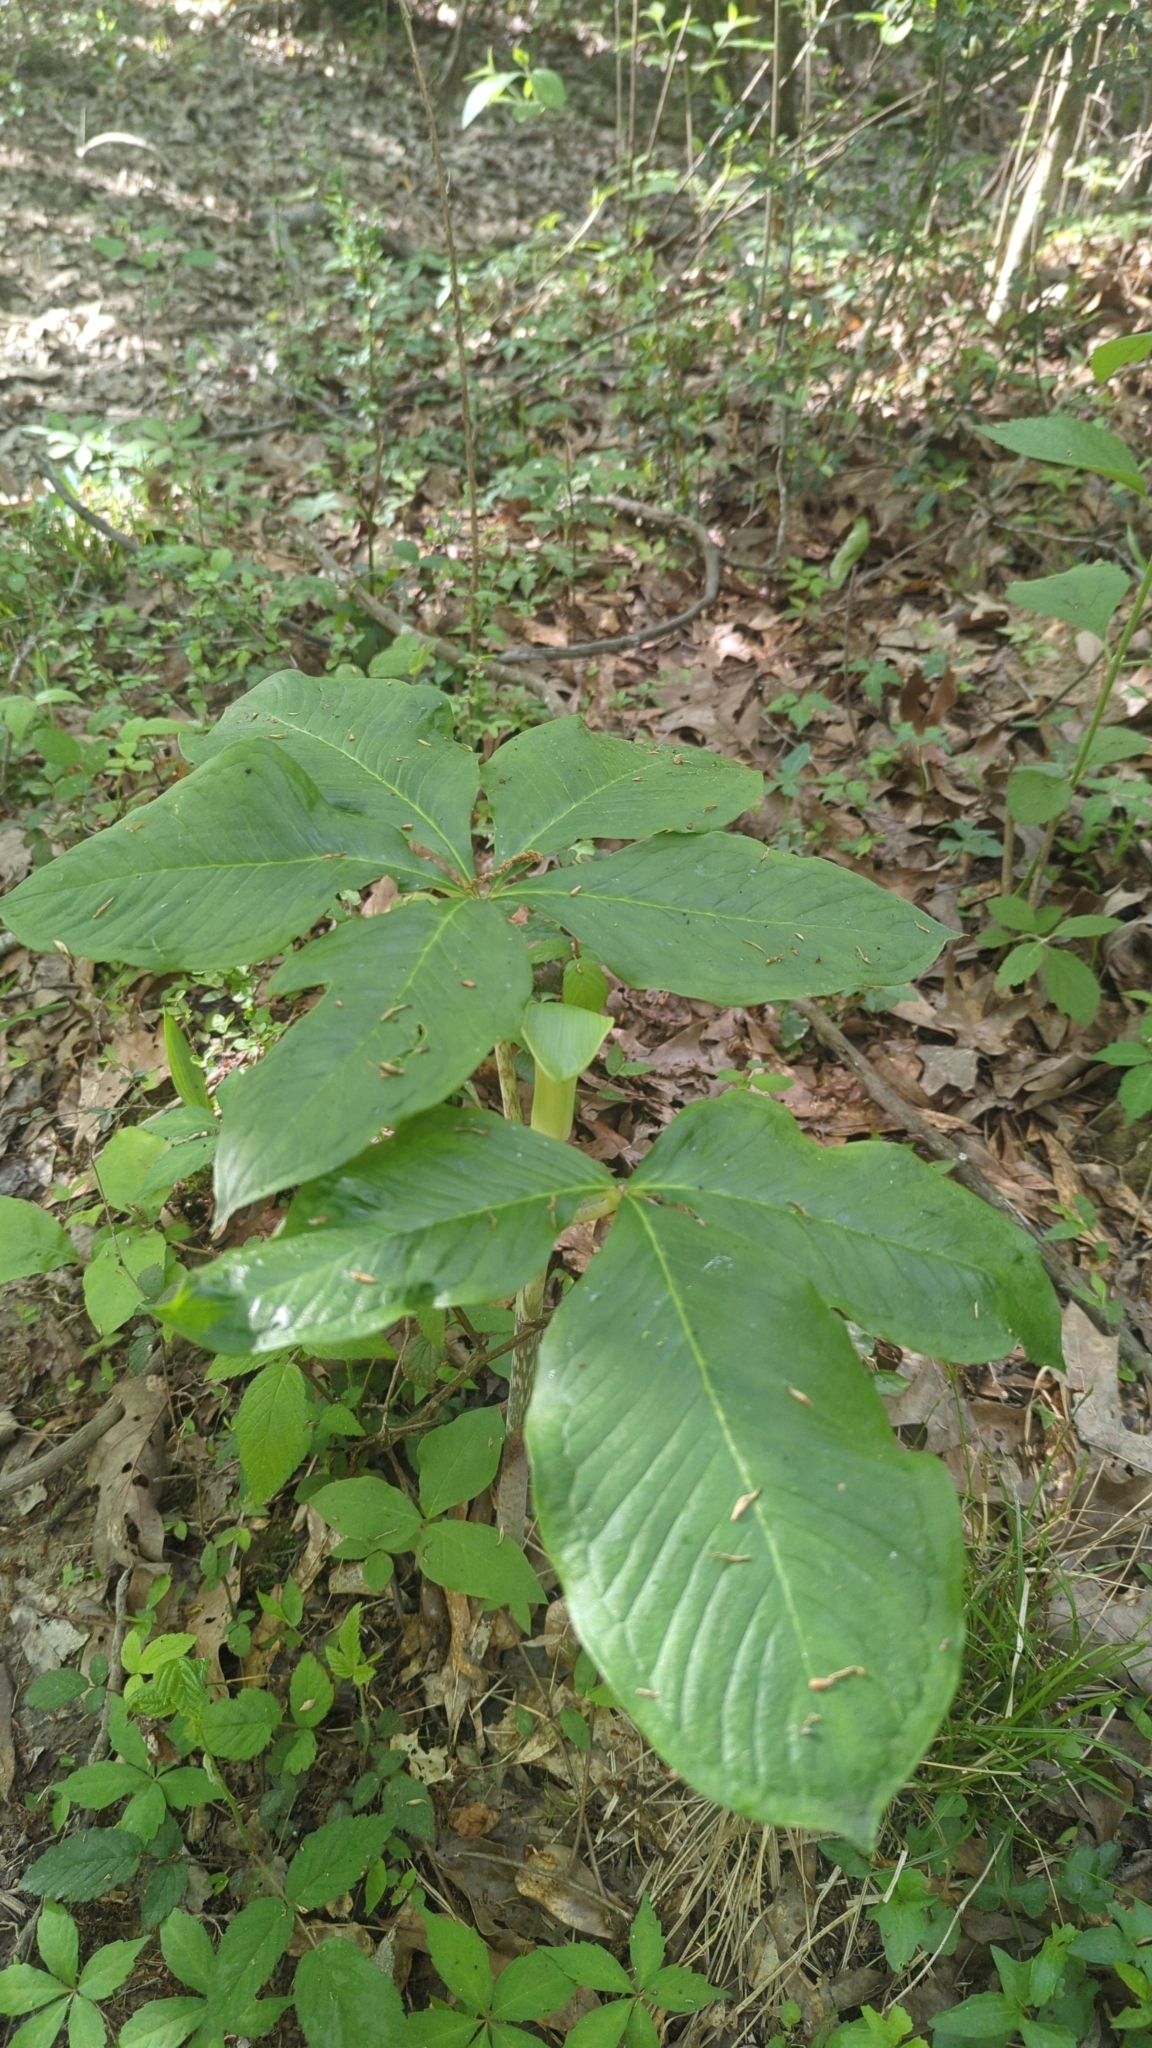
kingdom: Plantae
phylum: Tracheophyta
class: Liliopsida
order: Alismatales
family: Araceae
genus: Arisaema
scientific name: Arisaema quinatum
